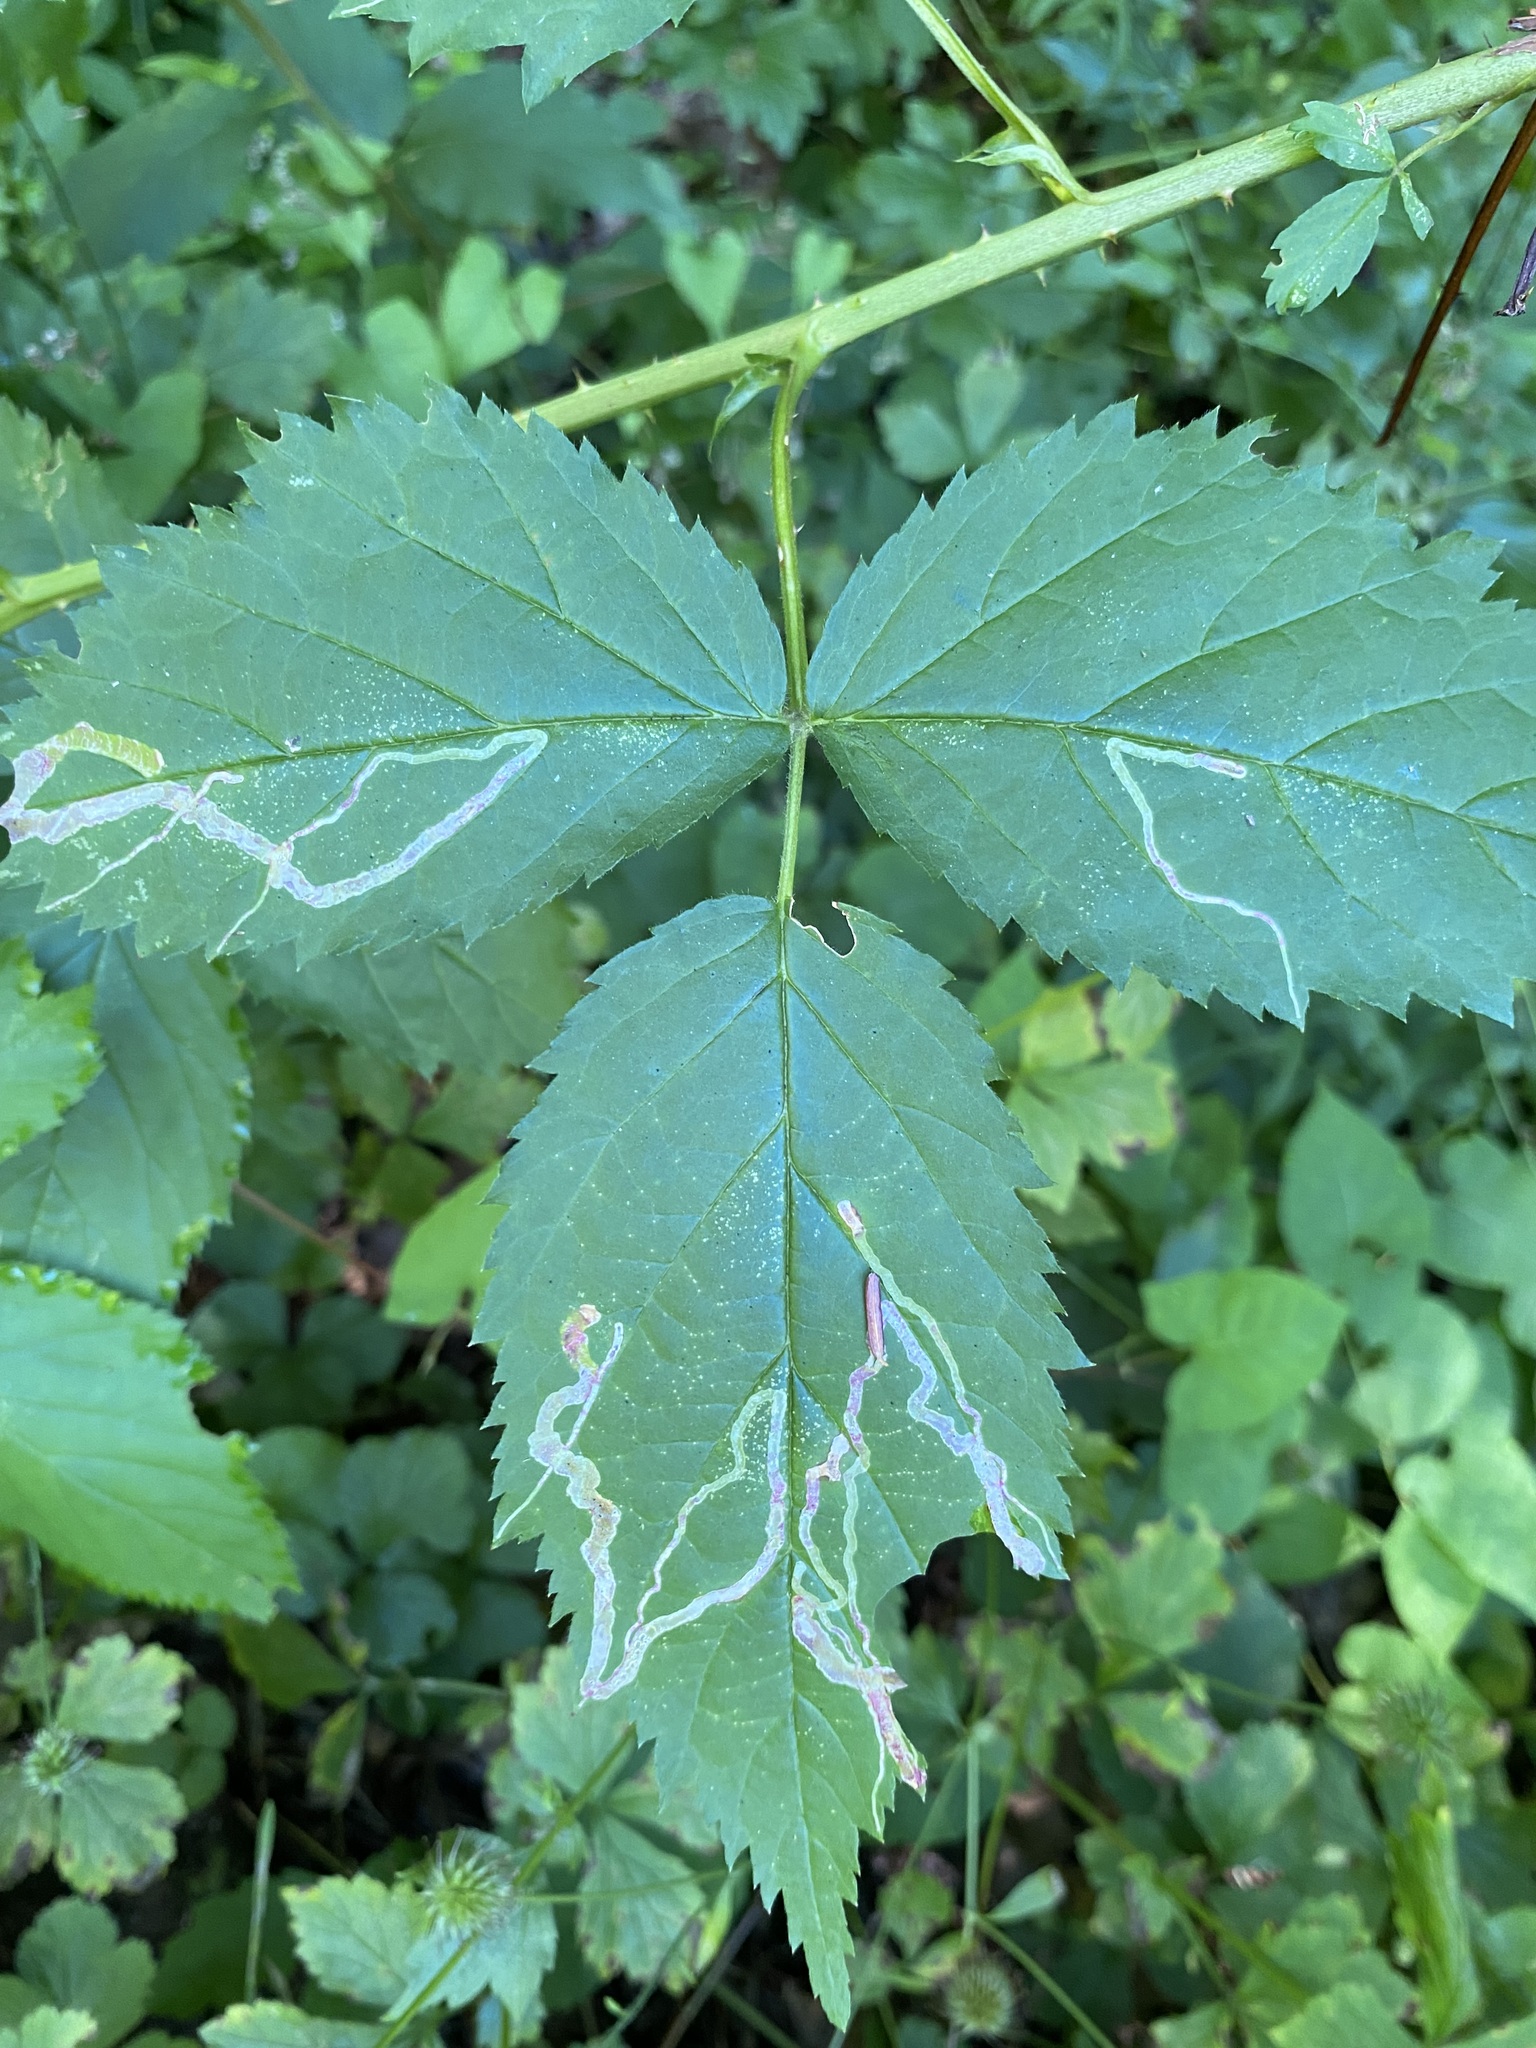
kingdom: Animalia
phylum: Arthropoda
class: Insecta
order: Diptera
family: Agromyzidae
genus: Agromyza
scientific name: Agromyza vockerothi
